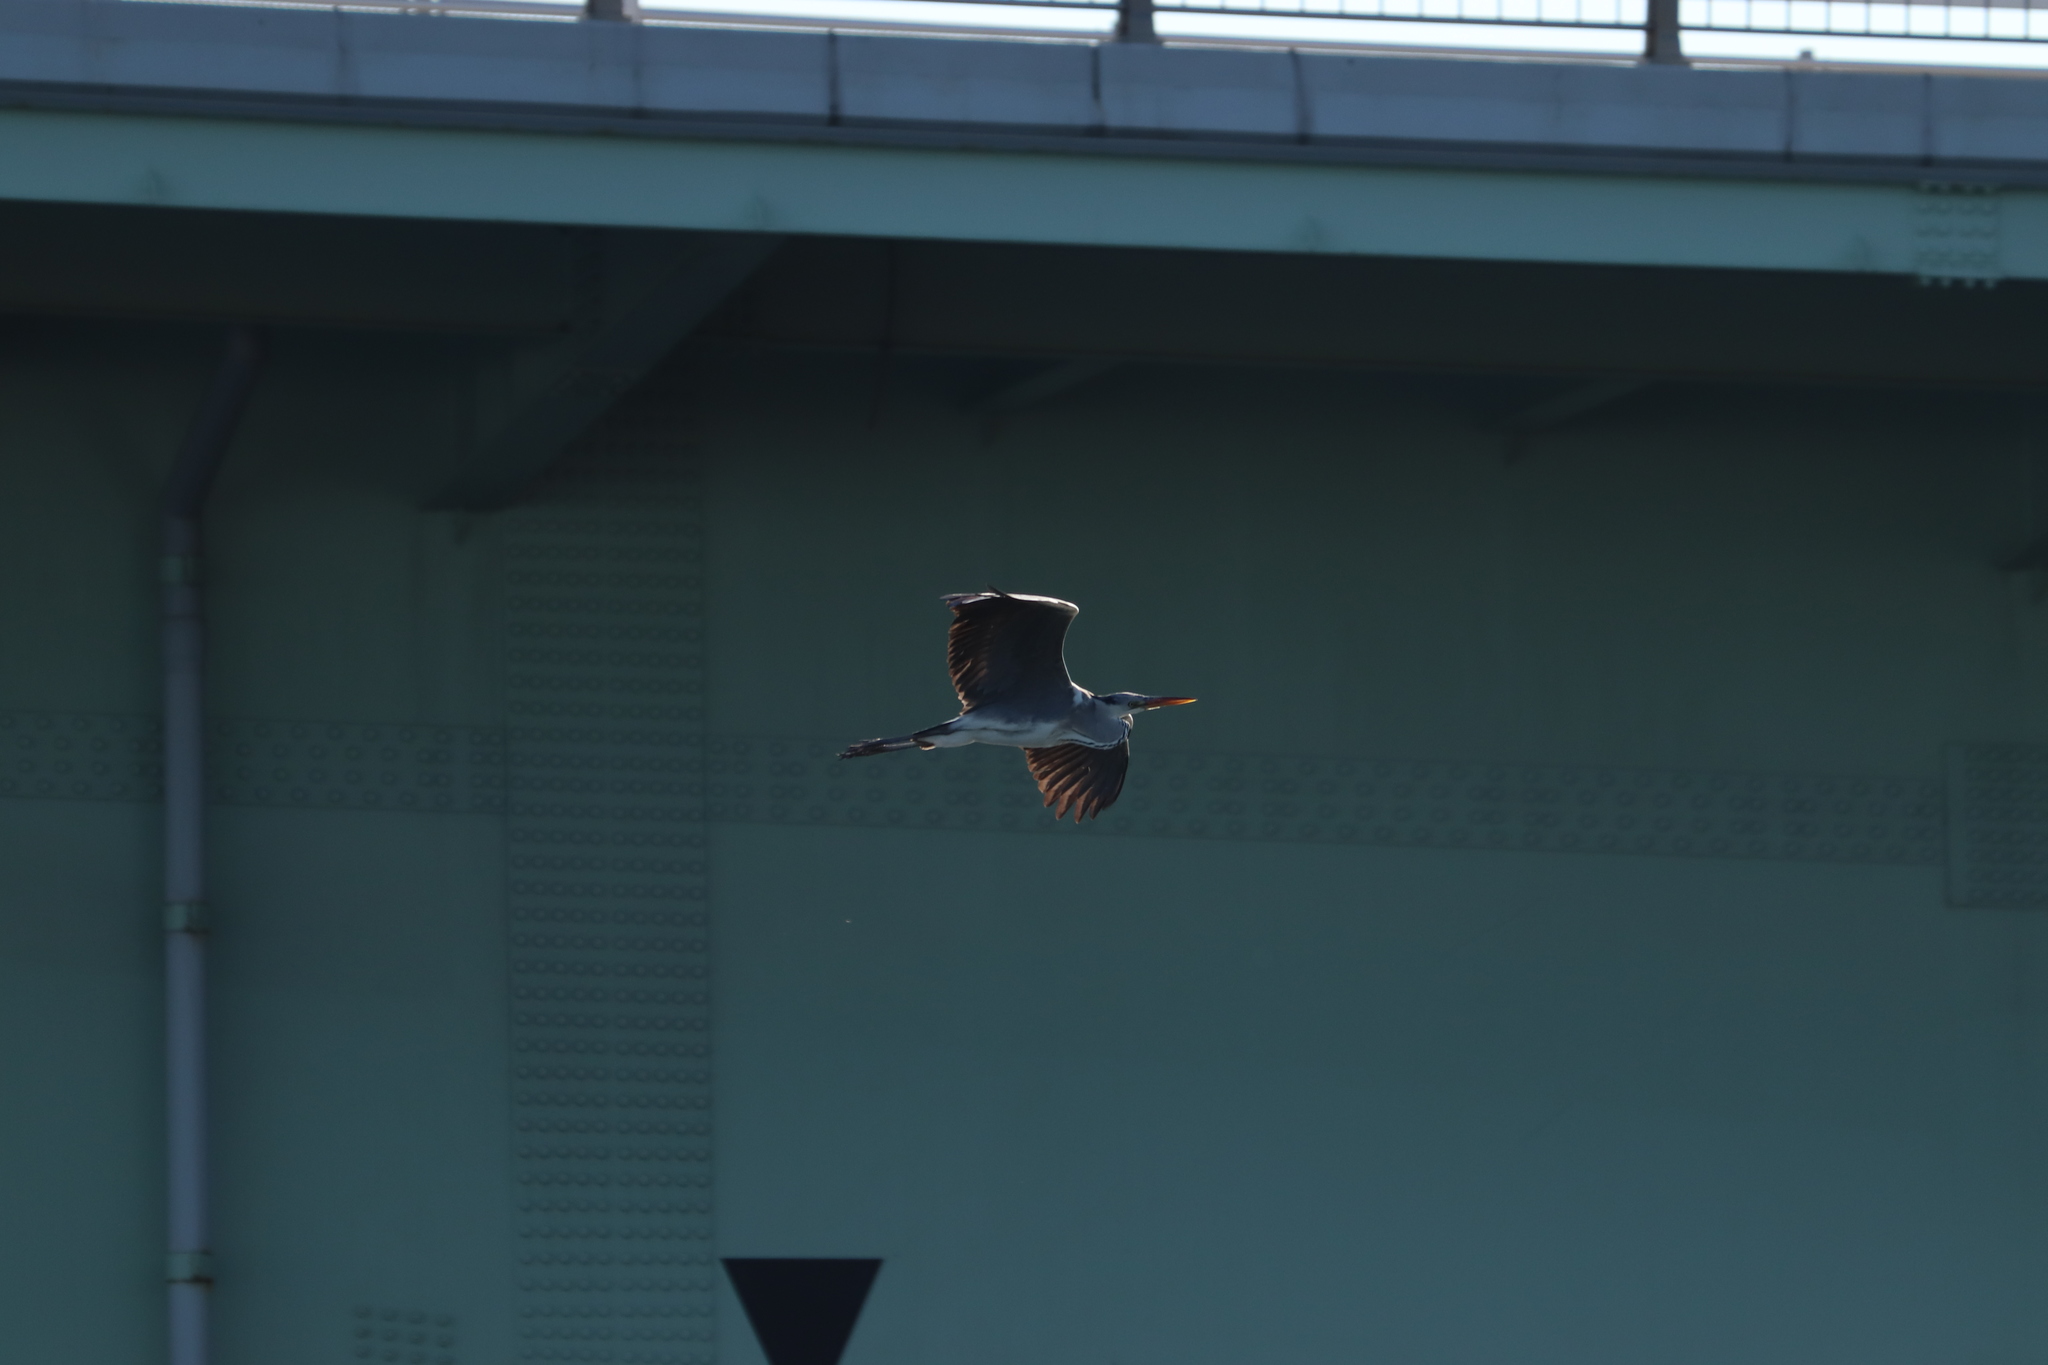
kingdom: Animalia
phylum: Chordata
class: Aves
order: Pelecaniformes
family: Ardeidae
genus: Ardea
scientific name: Ardea cinerea
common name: Grey heron
